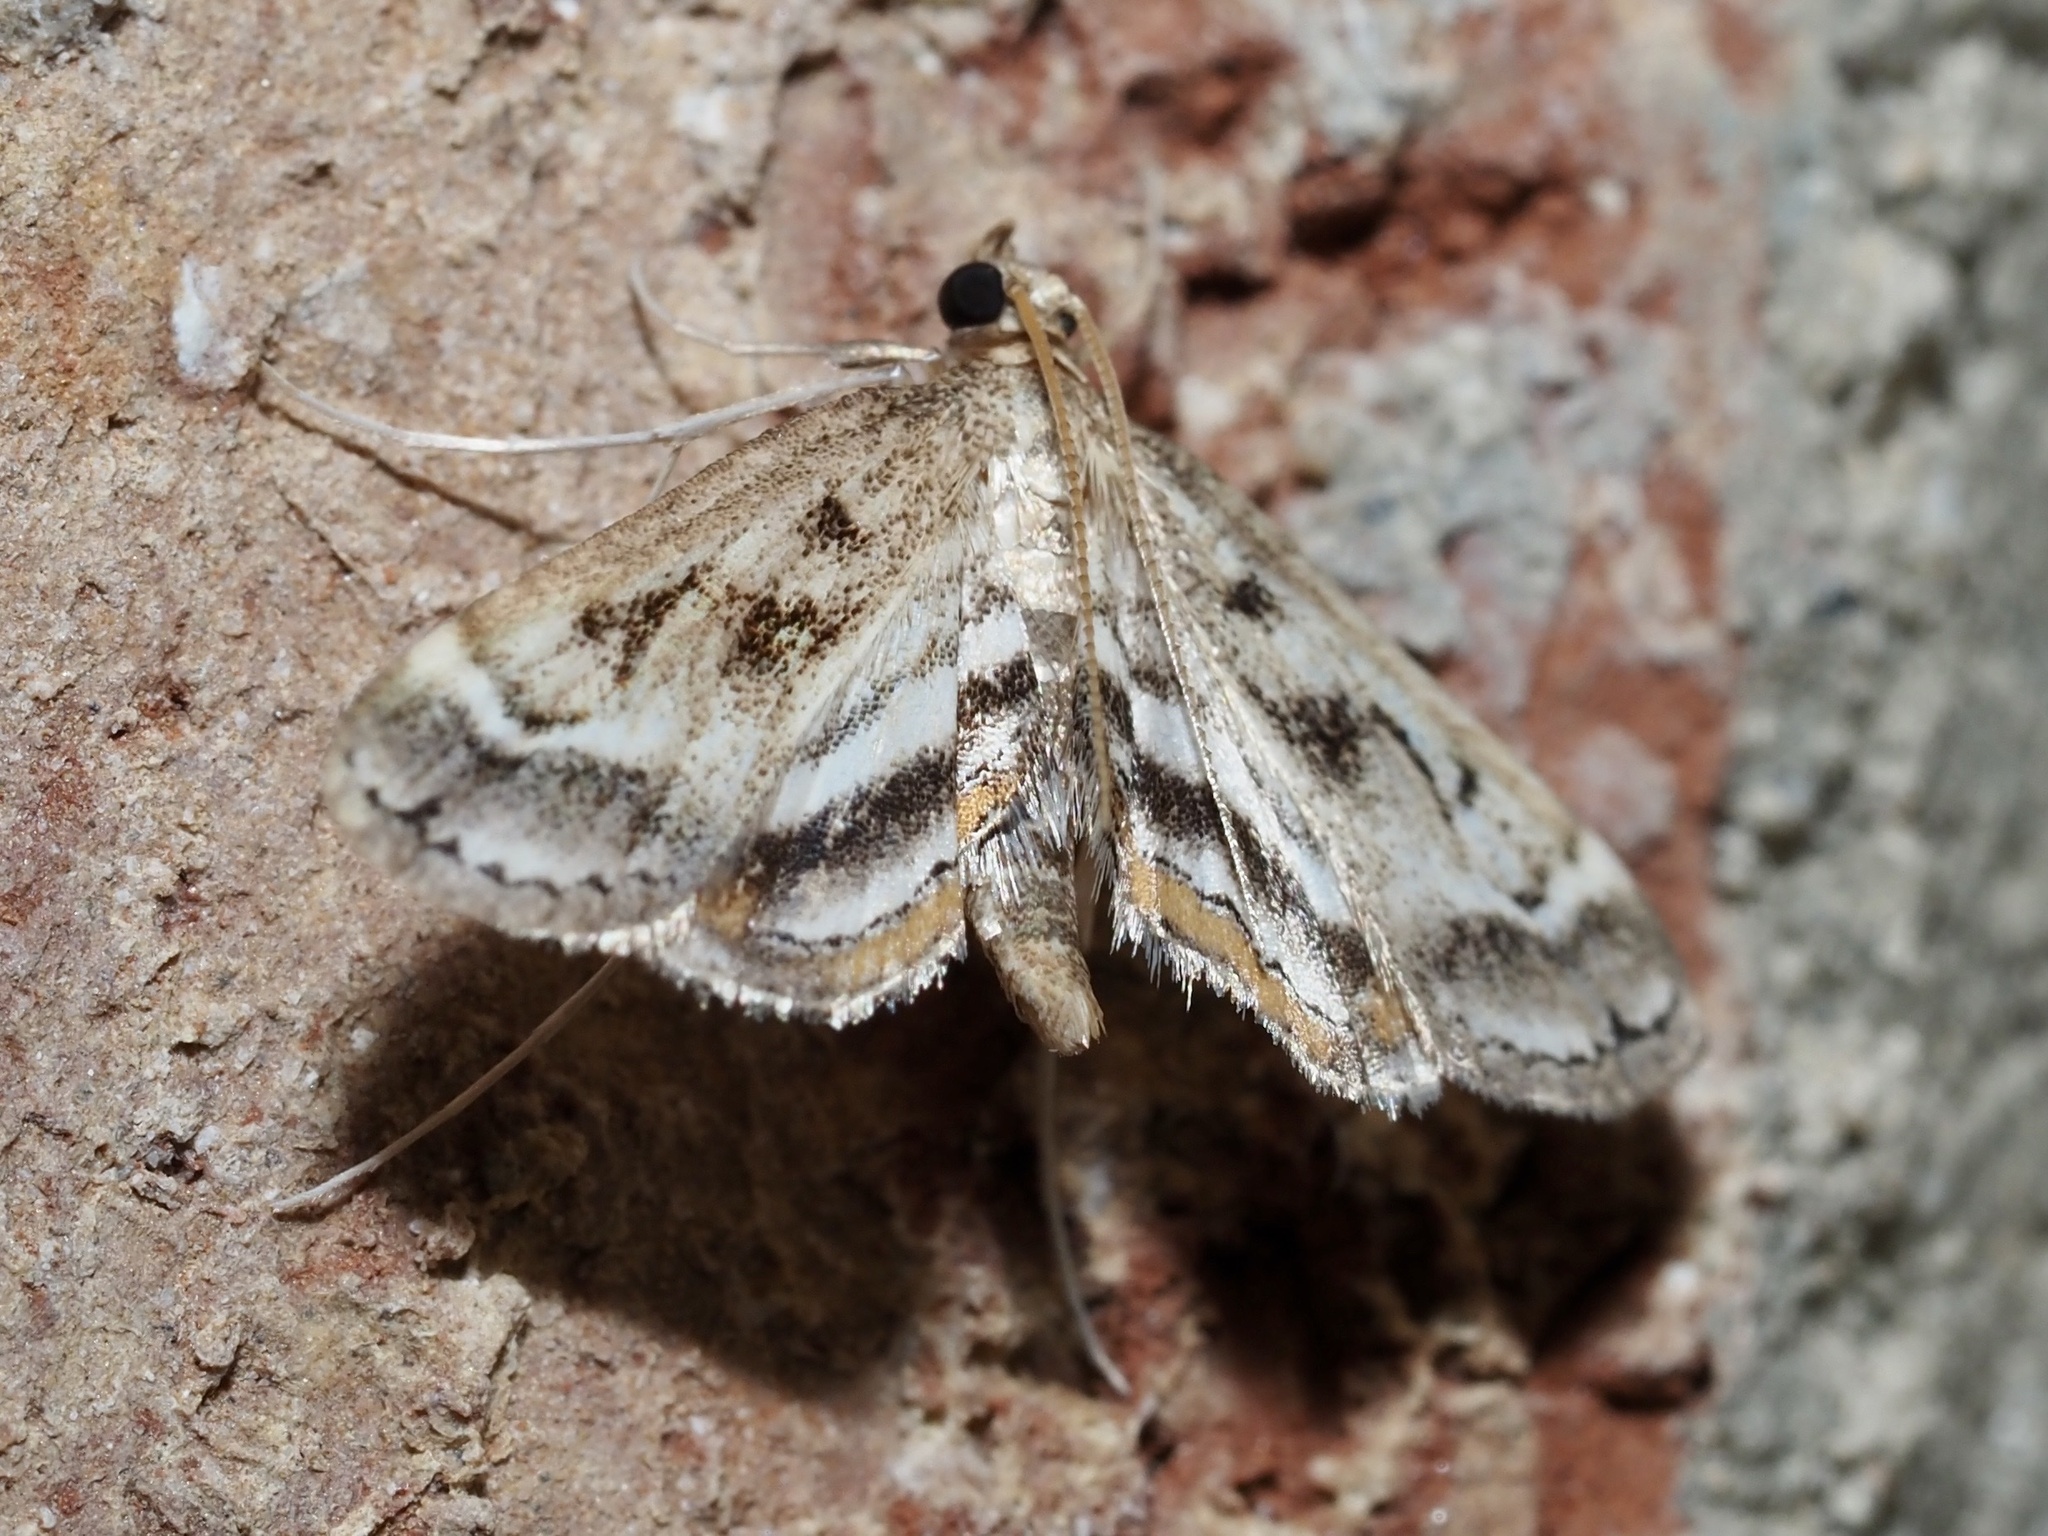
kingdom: Animalia
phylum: Arthropoda
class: Insecta
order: Lepidoptera
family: Crambidae
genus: Parapoynx
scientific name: Parapoynx obscuralis
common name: American china-mark
